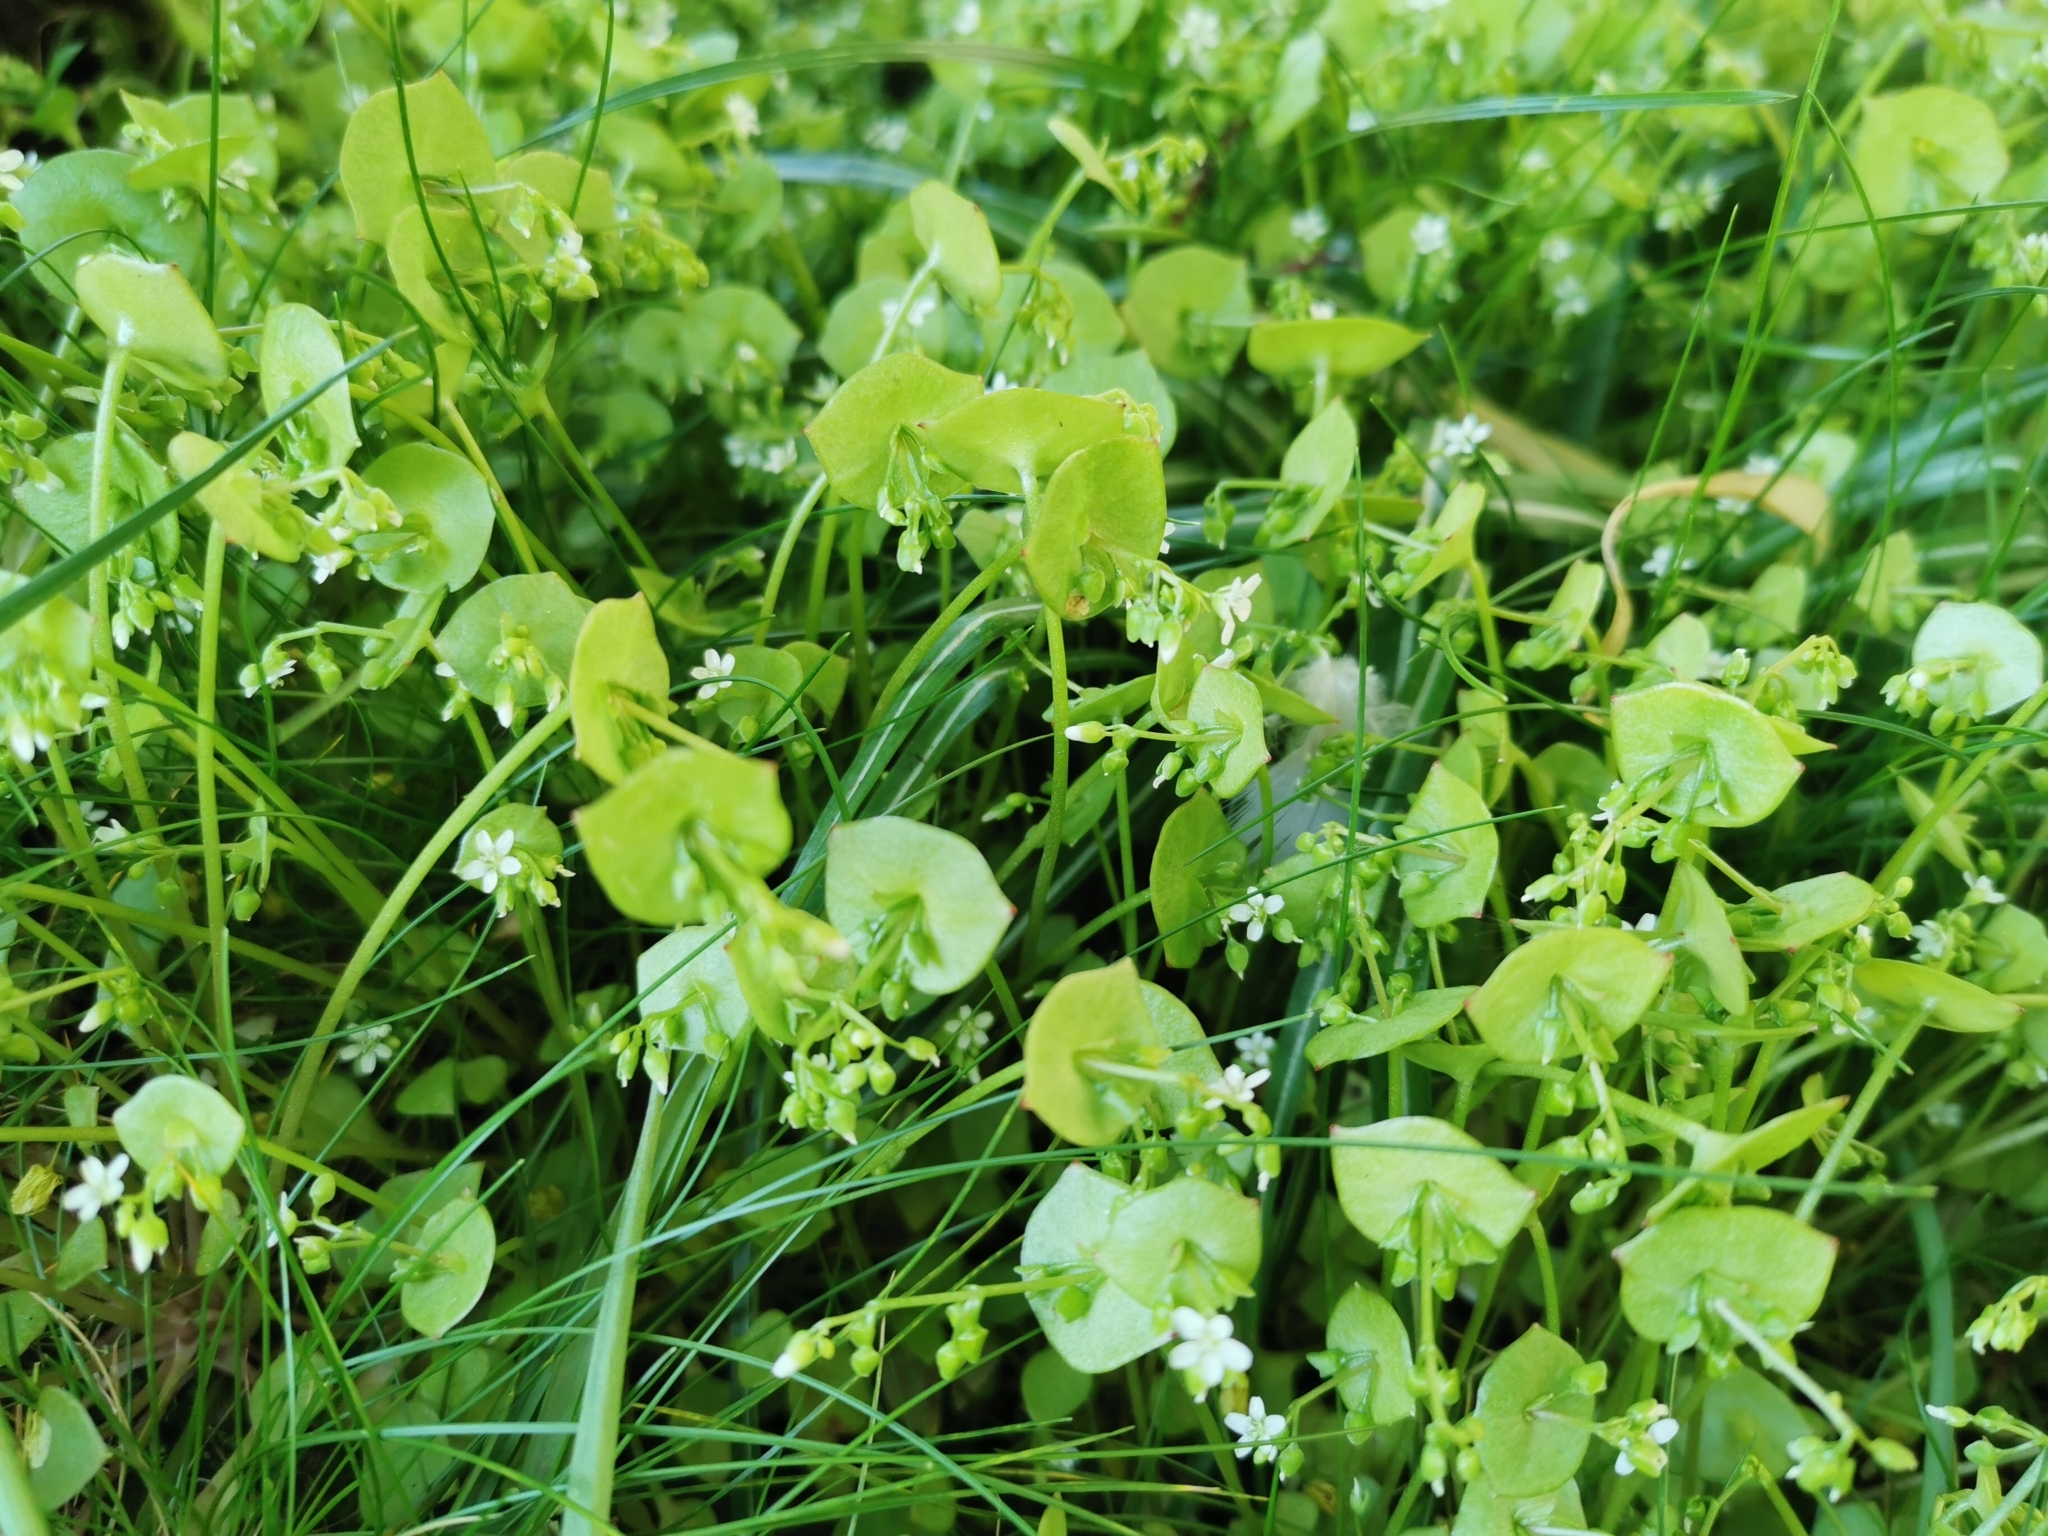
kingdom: Plantae
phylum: Tracheophyta
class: Magnoliopsida
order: Caryophyllales
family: Montiaceae
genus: Claytonia
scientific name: Claytonia perfoliata
